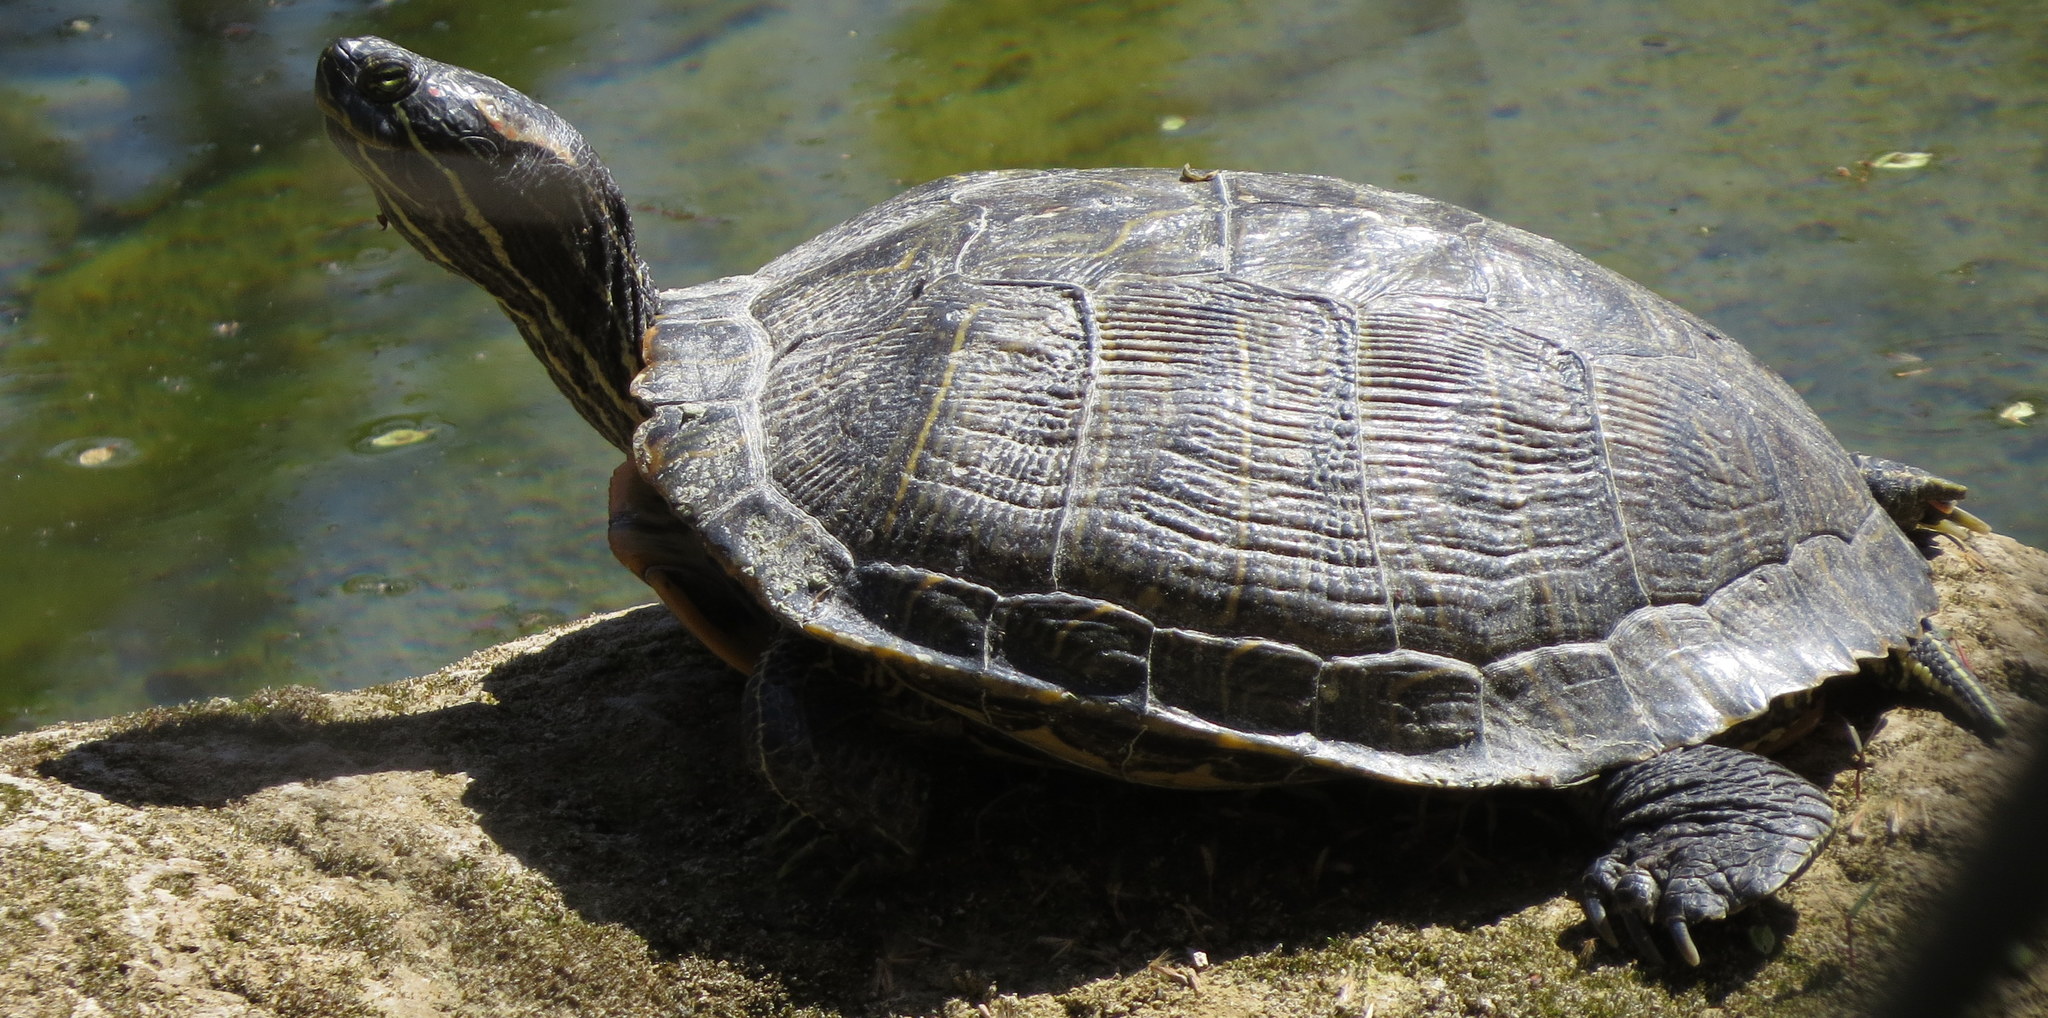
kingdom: Animalia
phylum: Chordata
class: Testudines
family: Emydidae
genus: Trachemys
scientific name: Trachemys scripta
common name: Slider
